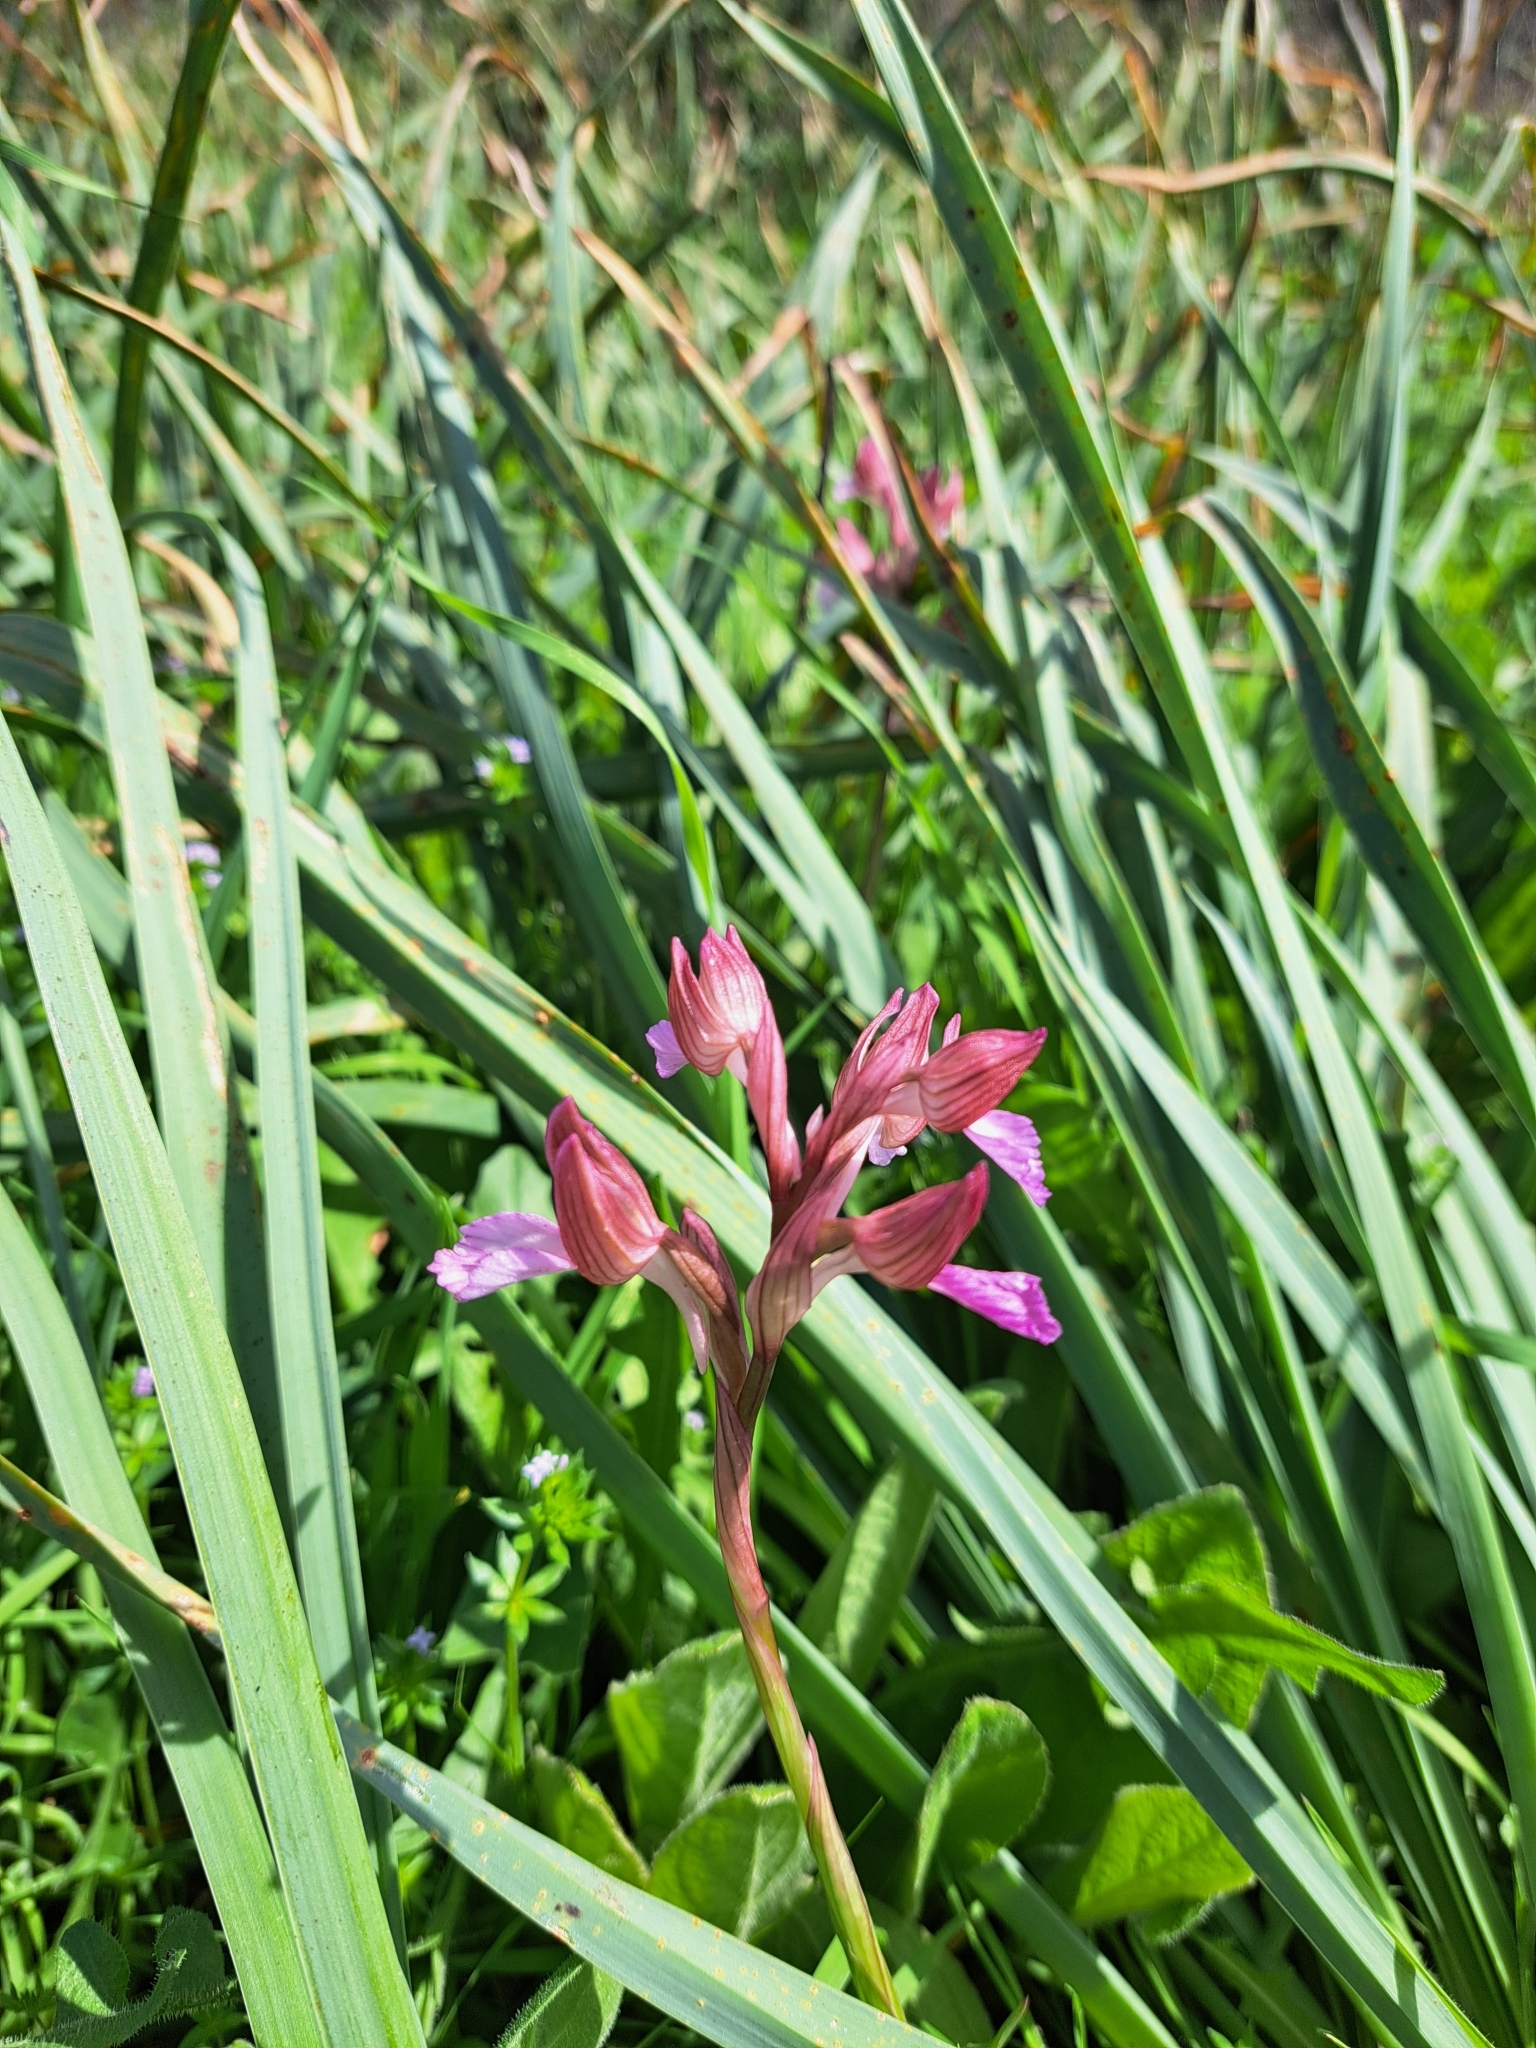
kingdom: Plantae
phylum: Tracheophyta
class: Liliopsida
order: Asparagales
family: Orchidaceae
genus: Anacamptis
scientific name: Anacamptis papilionacea
